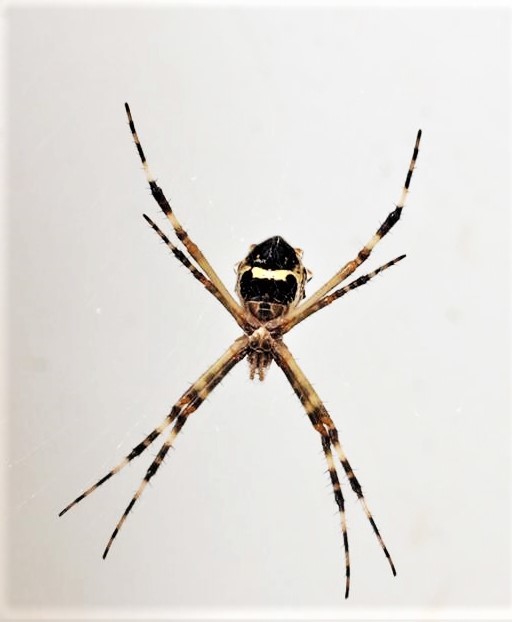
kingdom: Animalia
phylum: Arthropoda
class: Arachnida
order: Araneae
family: Araneidae
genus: Argiope
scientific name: Argiope argentata
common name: Orb weavers
